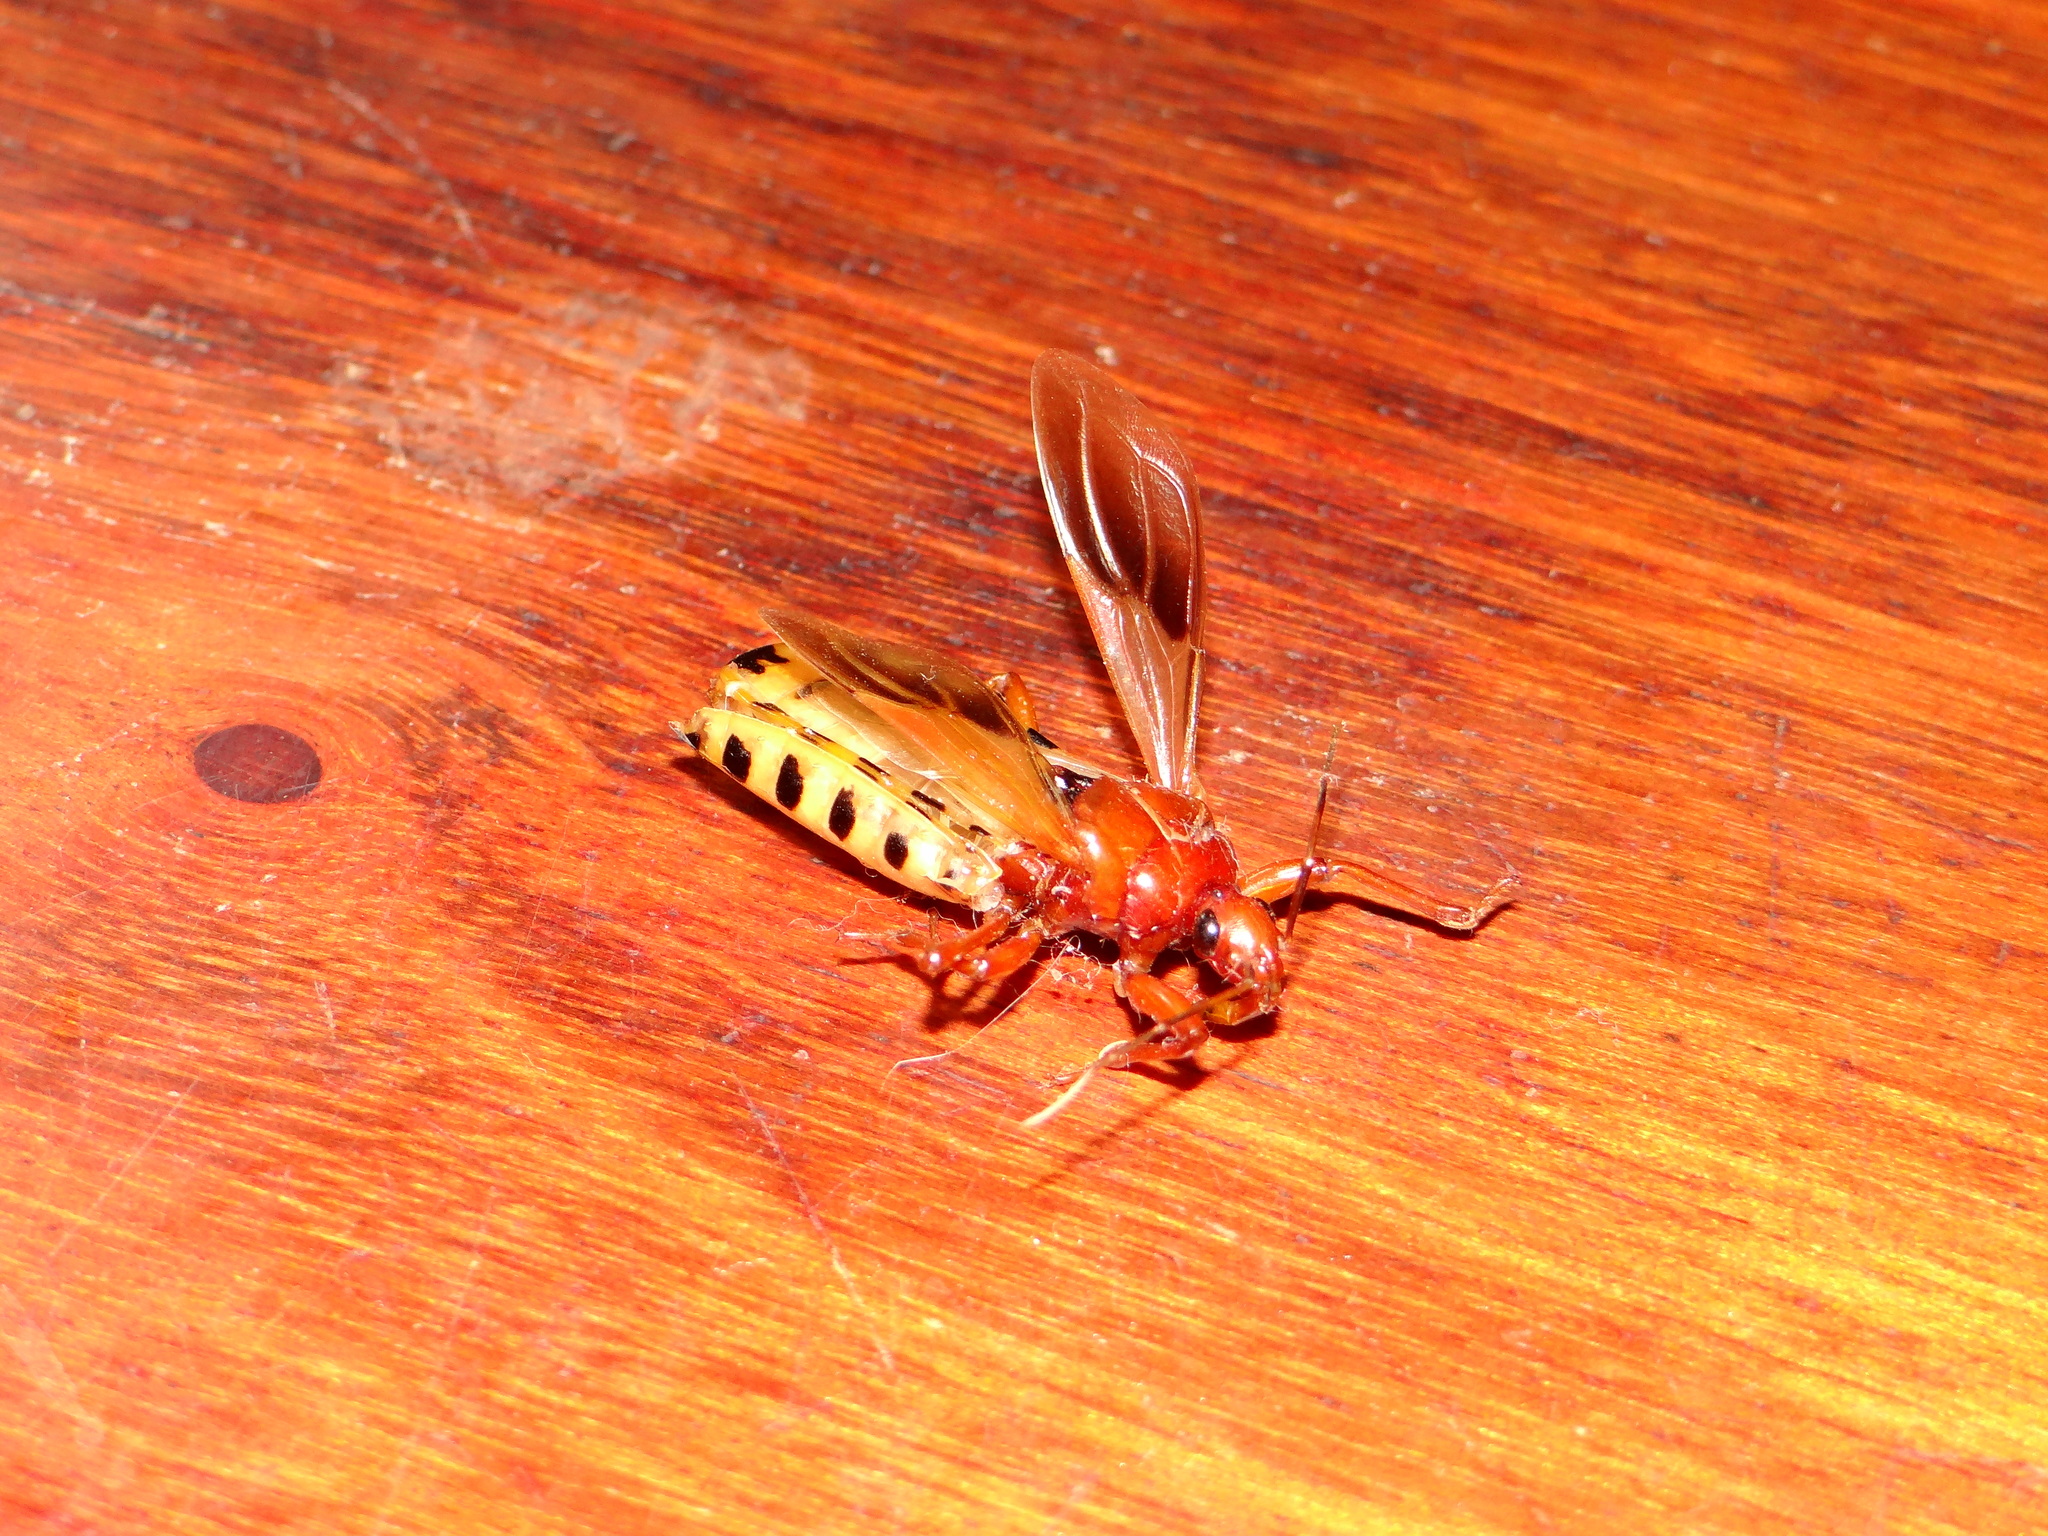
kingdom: Animalia
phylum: Arthropoda
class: Insecta
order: Hemiptera
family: Reduviidae
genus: Brontostoma
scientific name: Brontostoma rubrum
